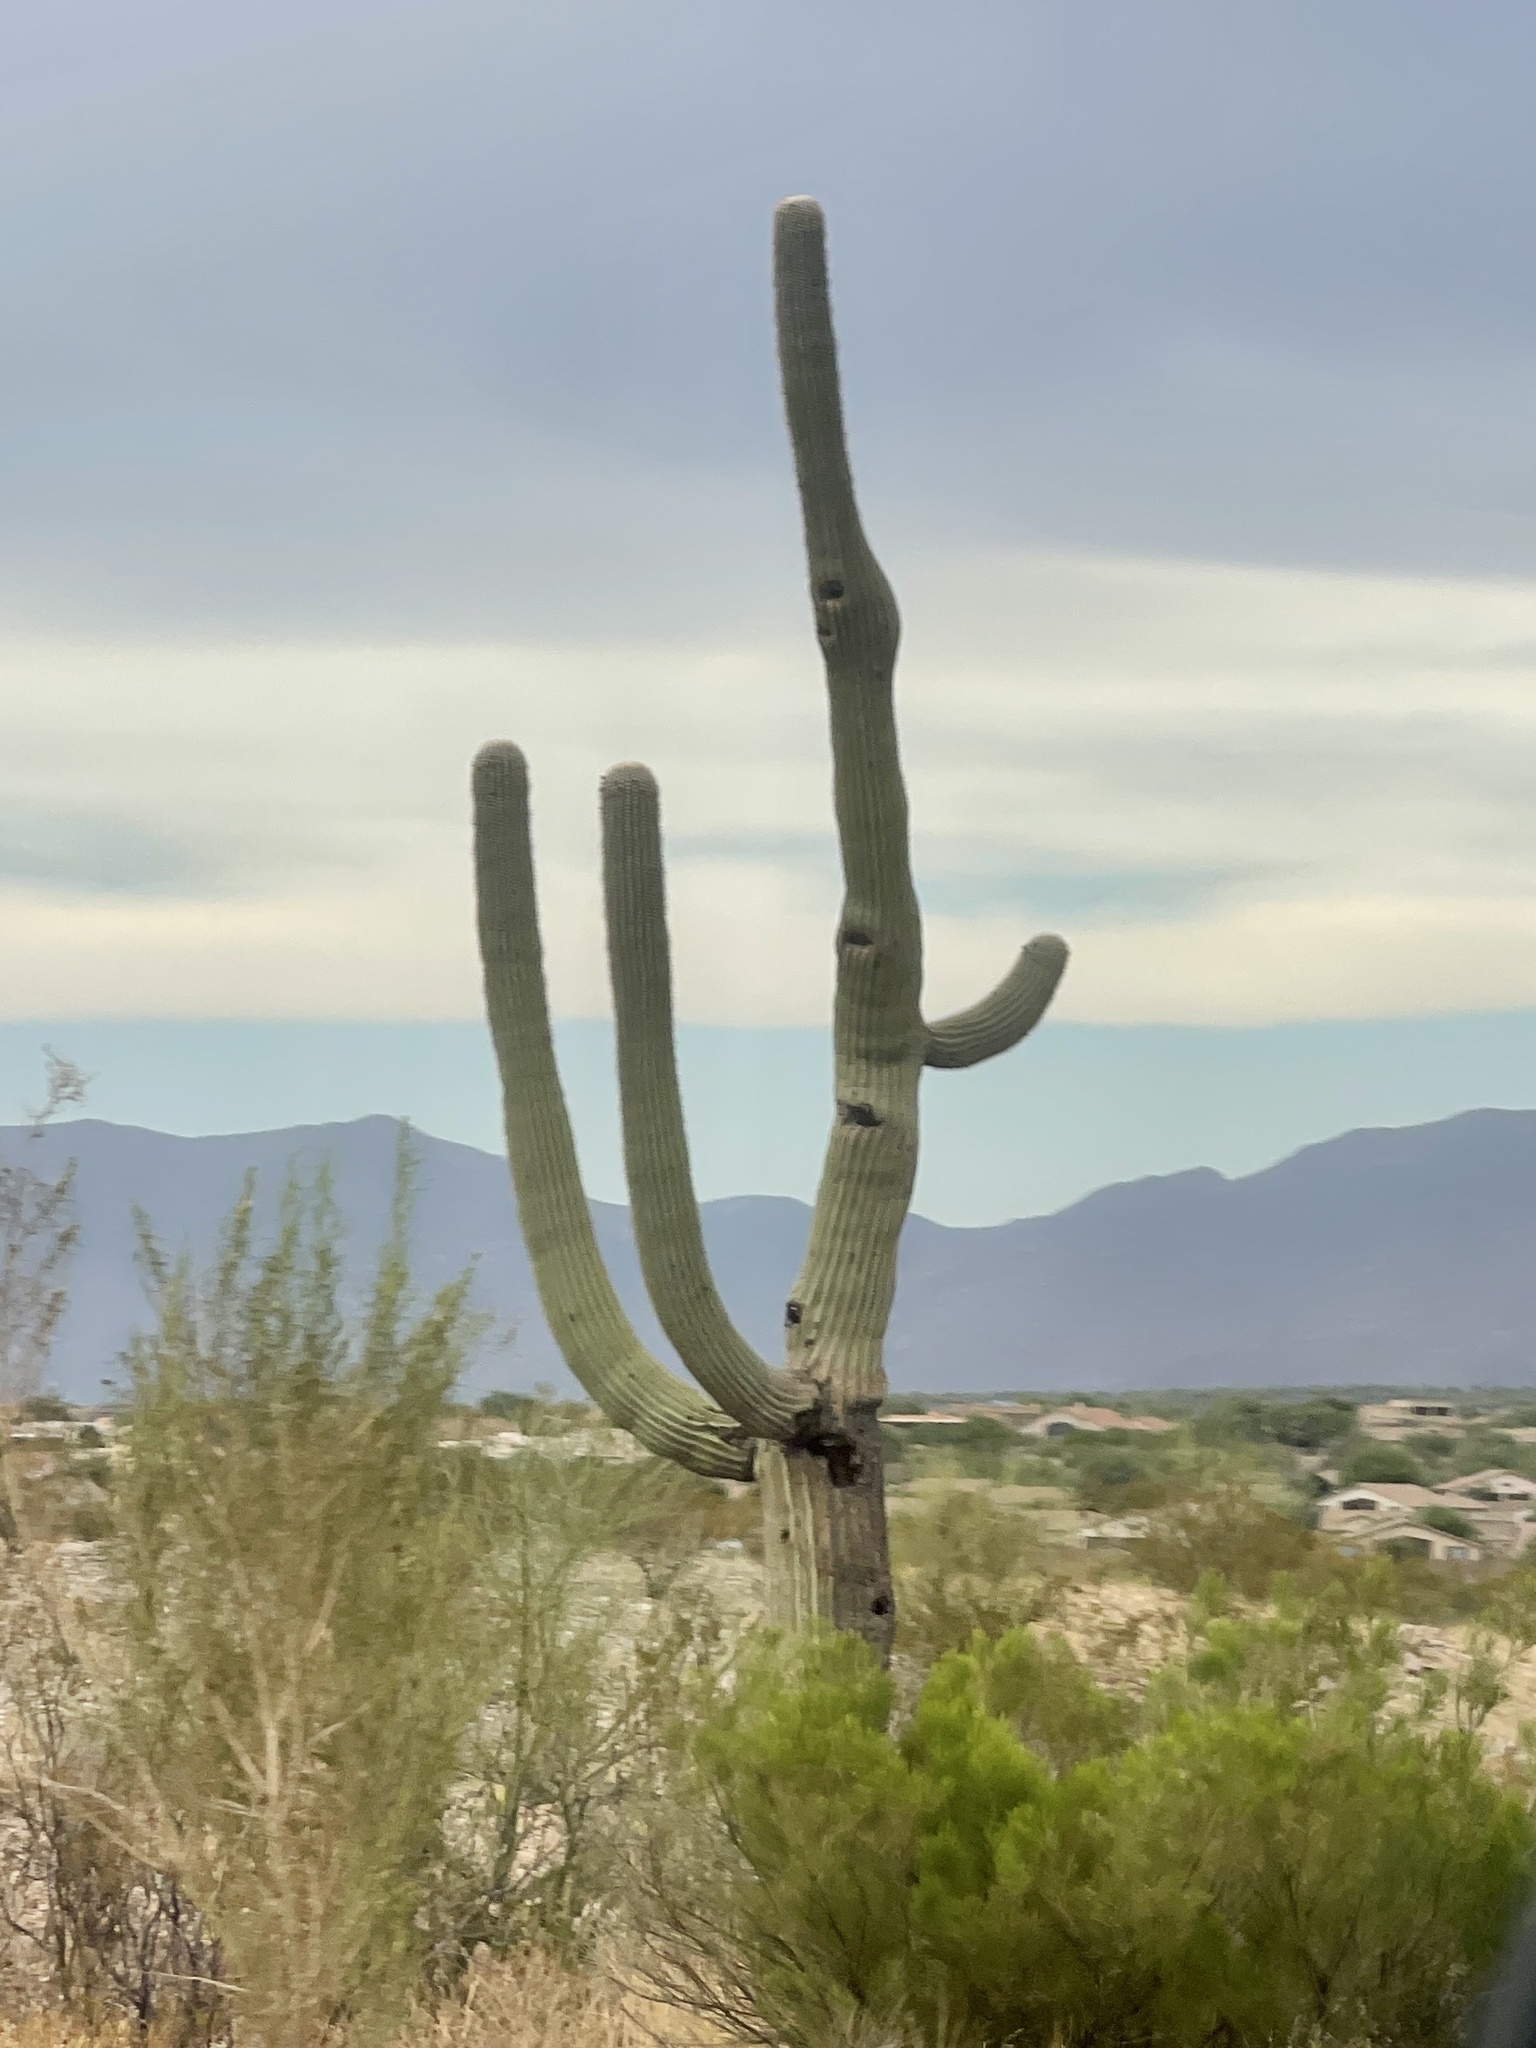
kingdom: Plantae
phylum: Tracheophyta
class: Magnoliopsida
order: Caryophyllales
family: Cactaceae
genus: Carnegiea
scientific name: Carnegiea gigantea
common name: Saguaro
